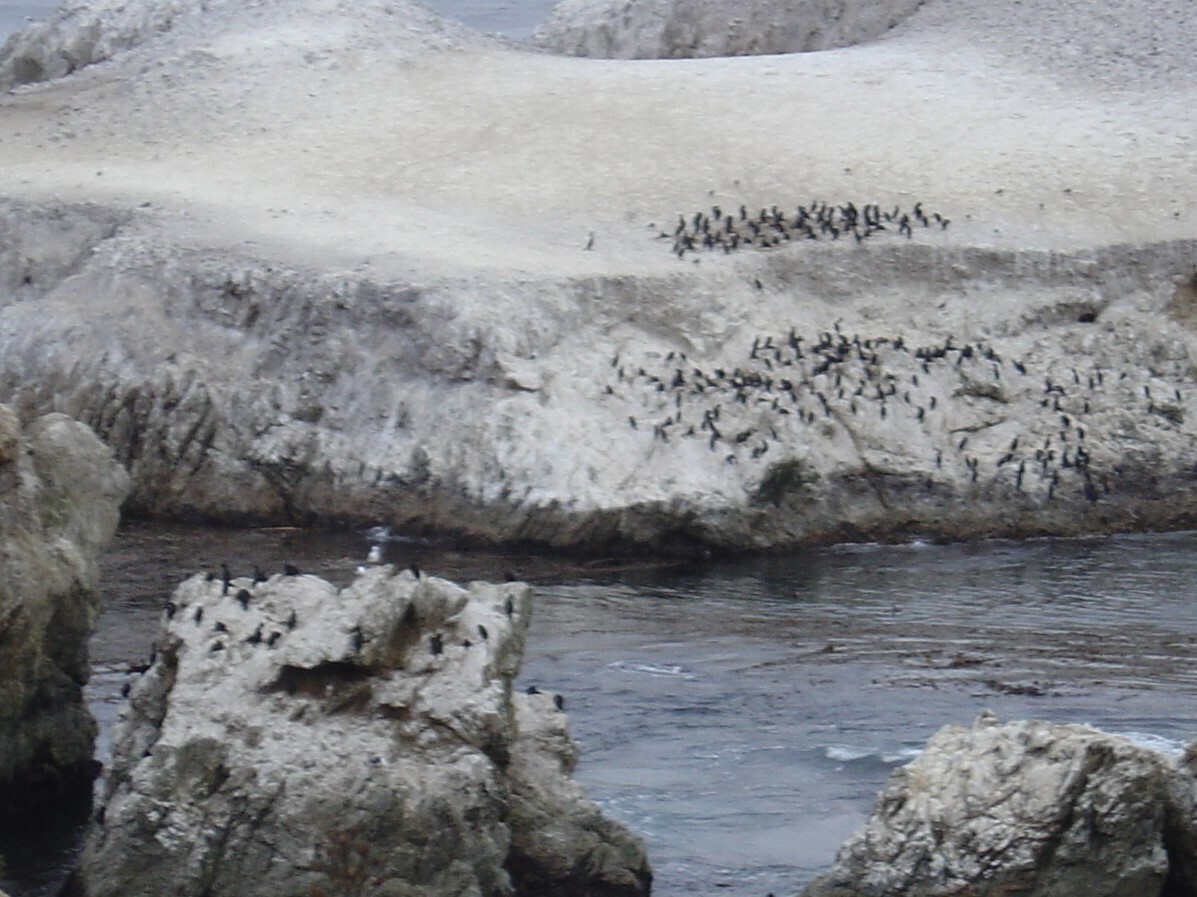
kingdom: Animalia
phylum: Chordata
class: Aves
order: Suliformes
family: Phalacrocoracidae
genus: Urile
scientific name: Urile
